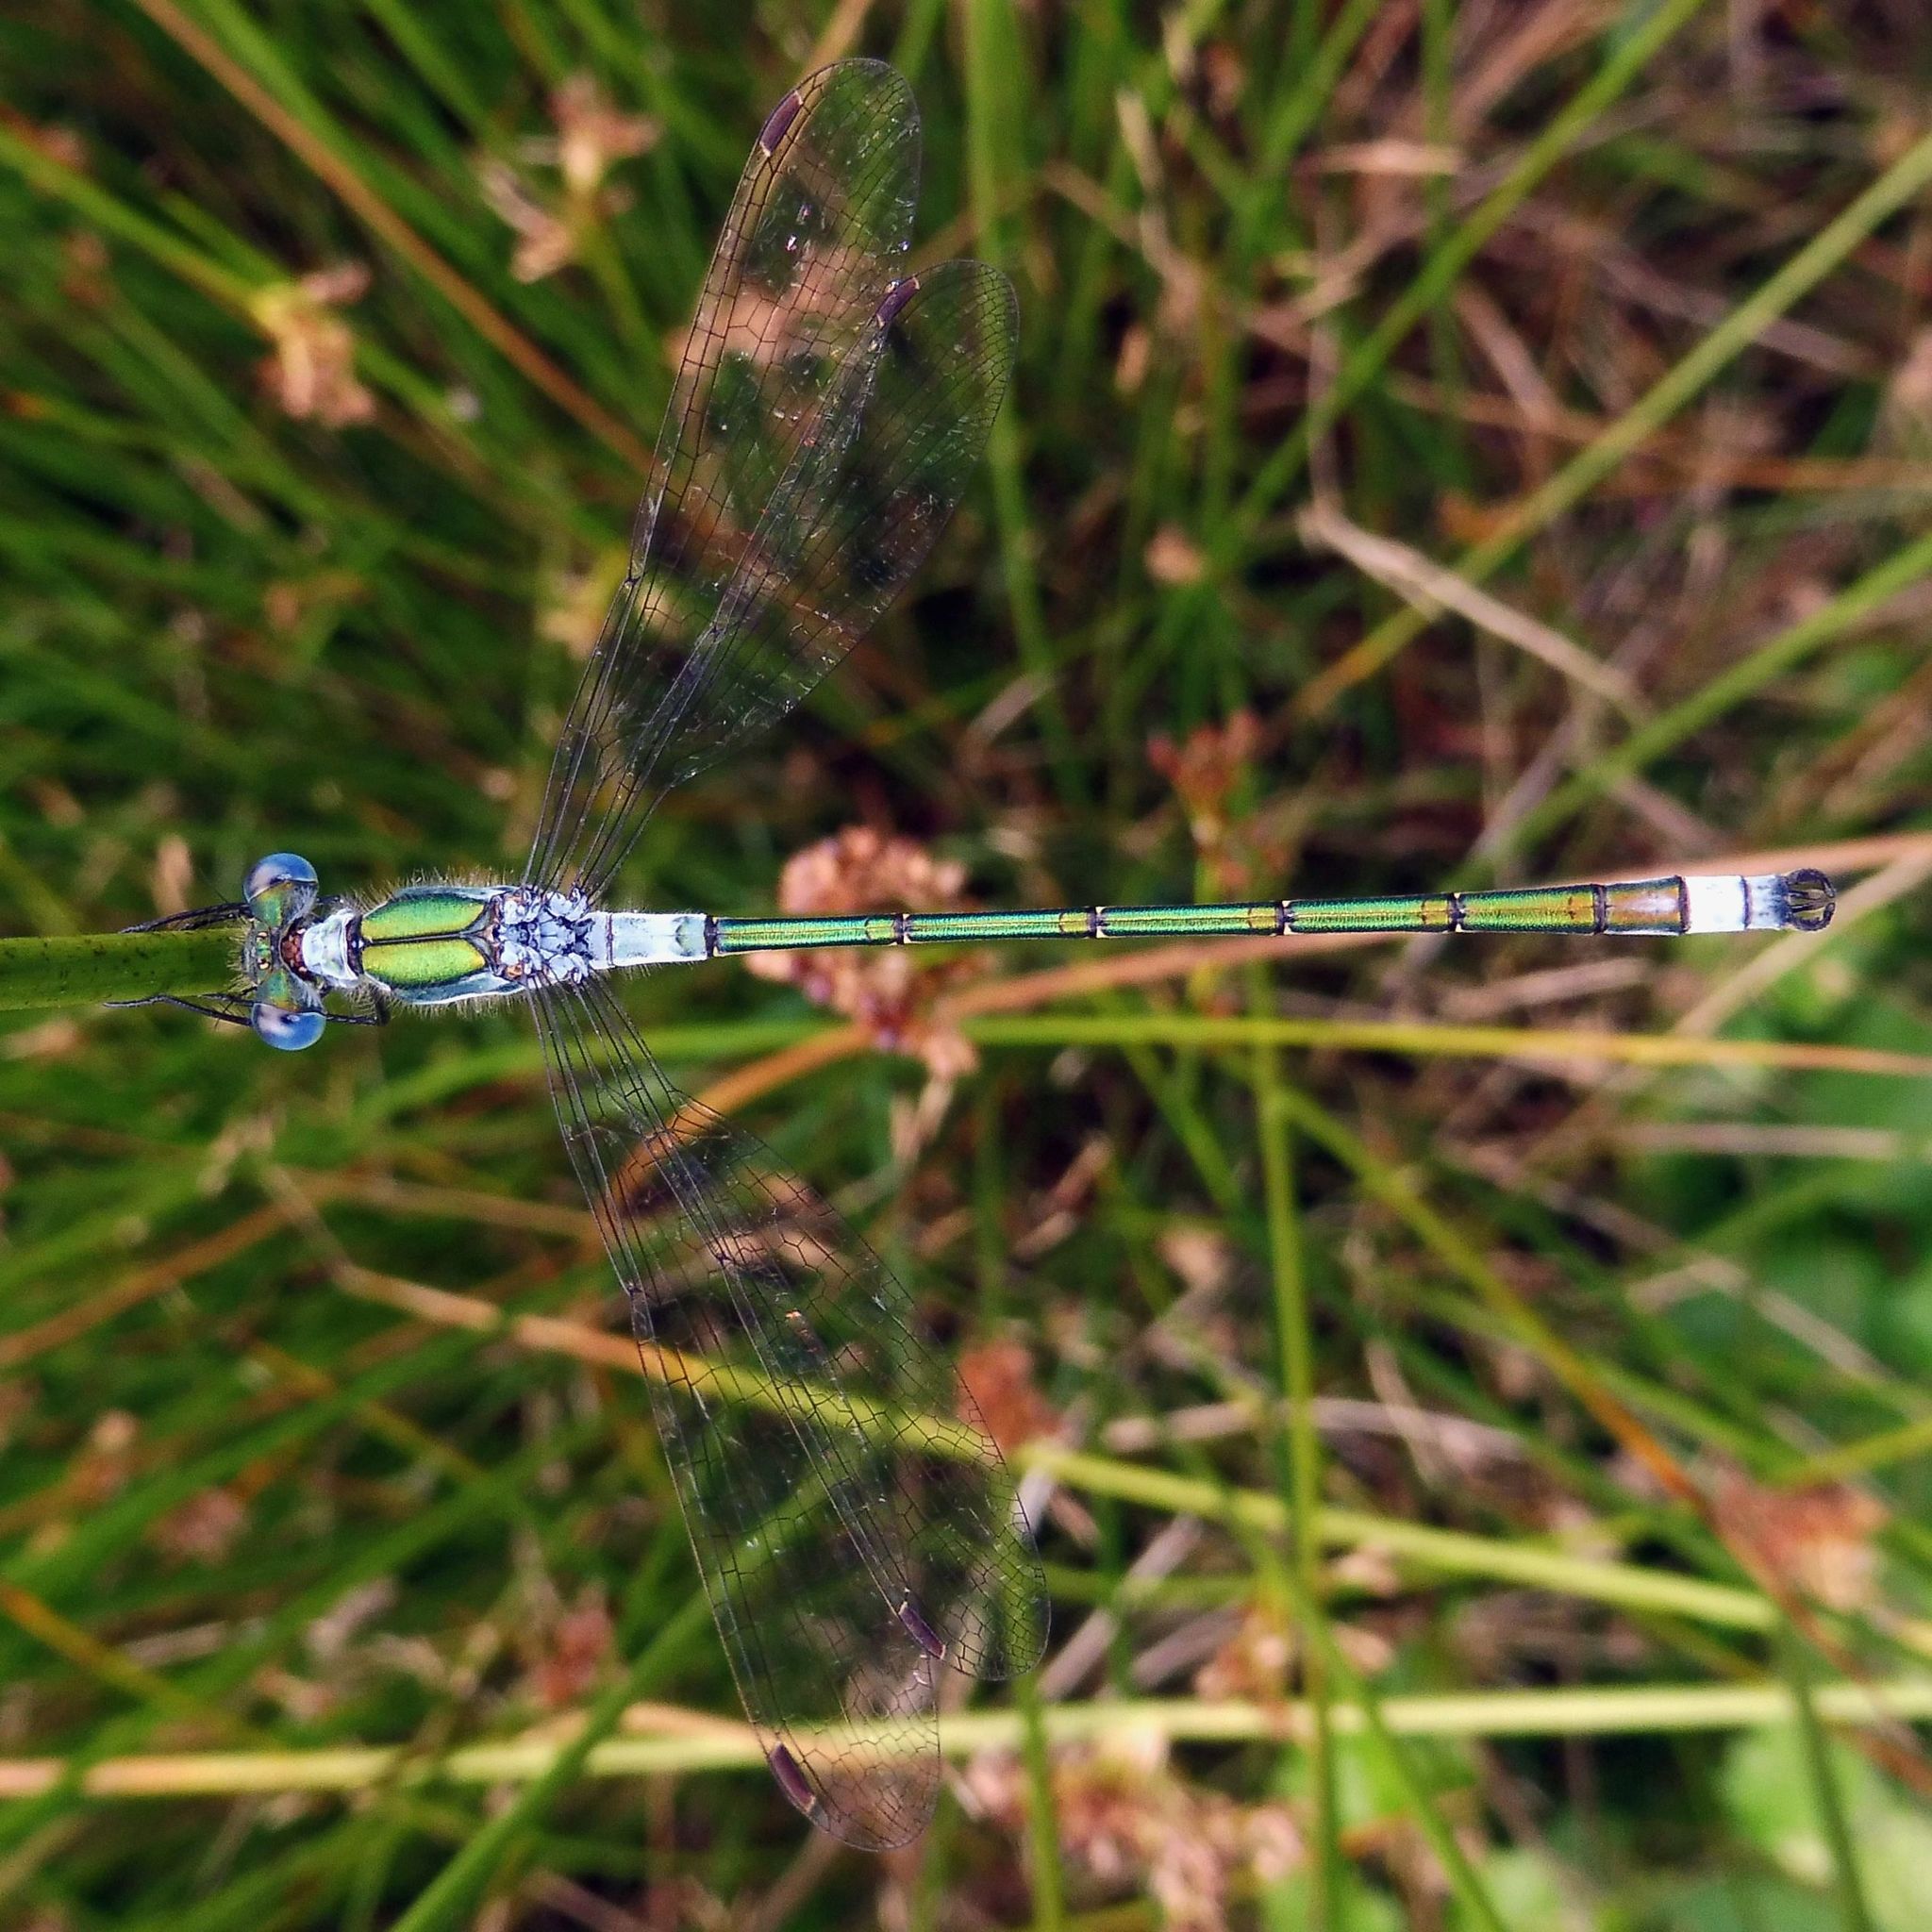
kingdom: Animalia
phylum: Arthropoda
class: Insecta
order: Odonata
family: Lestidae
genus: Lestes
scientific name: Lestes sponsa
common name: Common spreadwing
